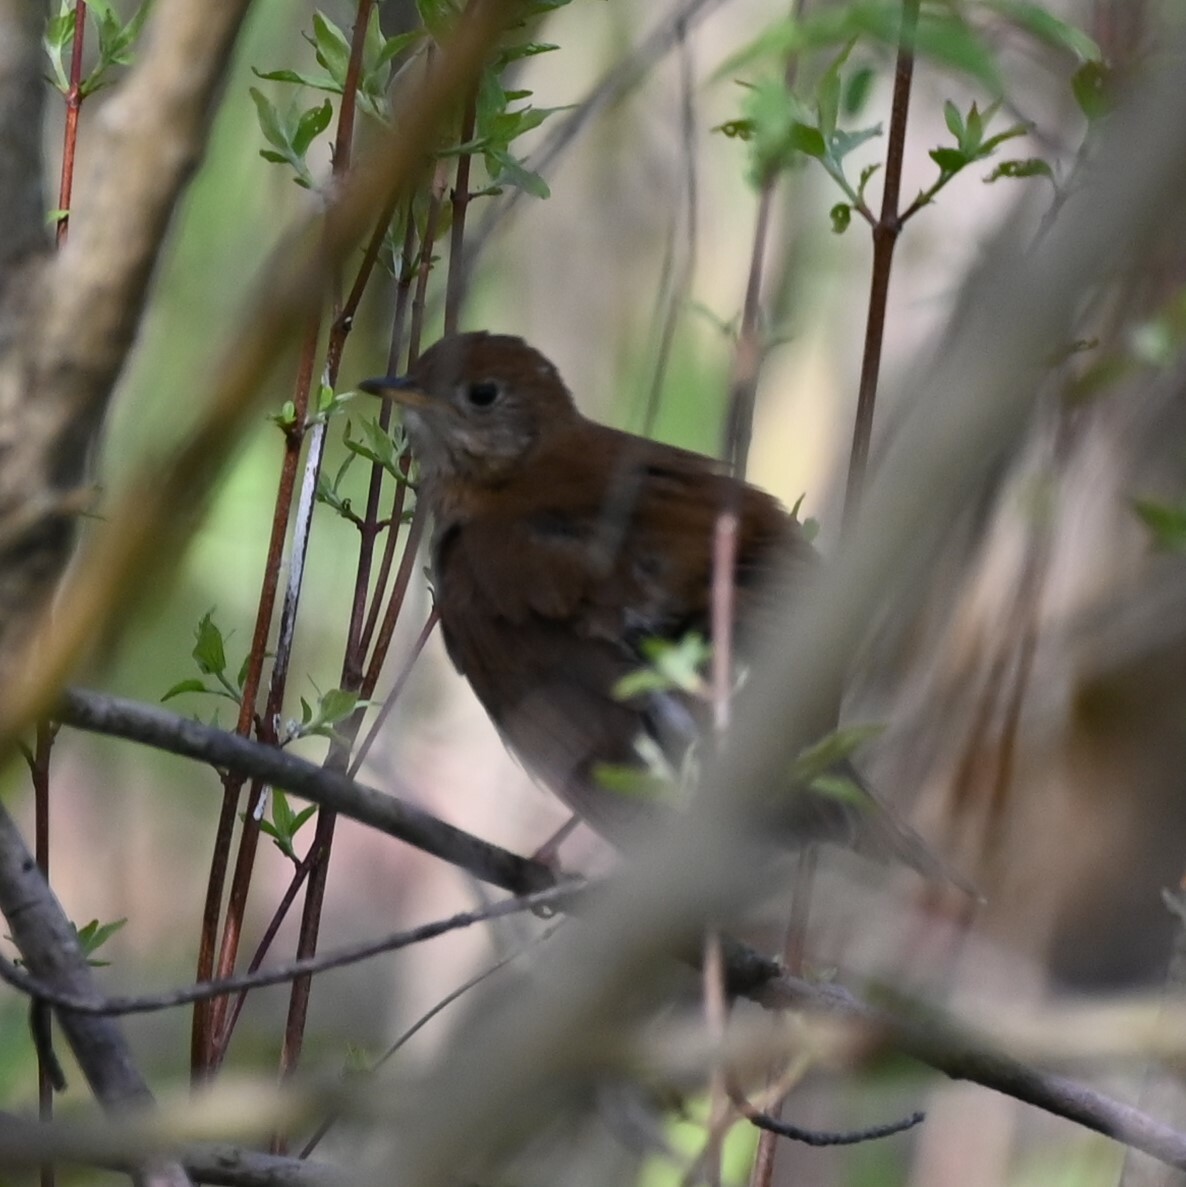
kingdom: Animalia
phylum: Chordata
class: Aves
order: Passeriformes
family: Turdidae
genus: Catharus
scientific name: Catharus fuscescens
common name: Veery
